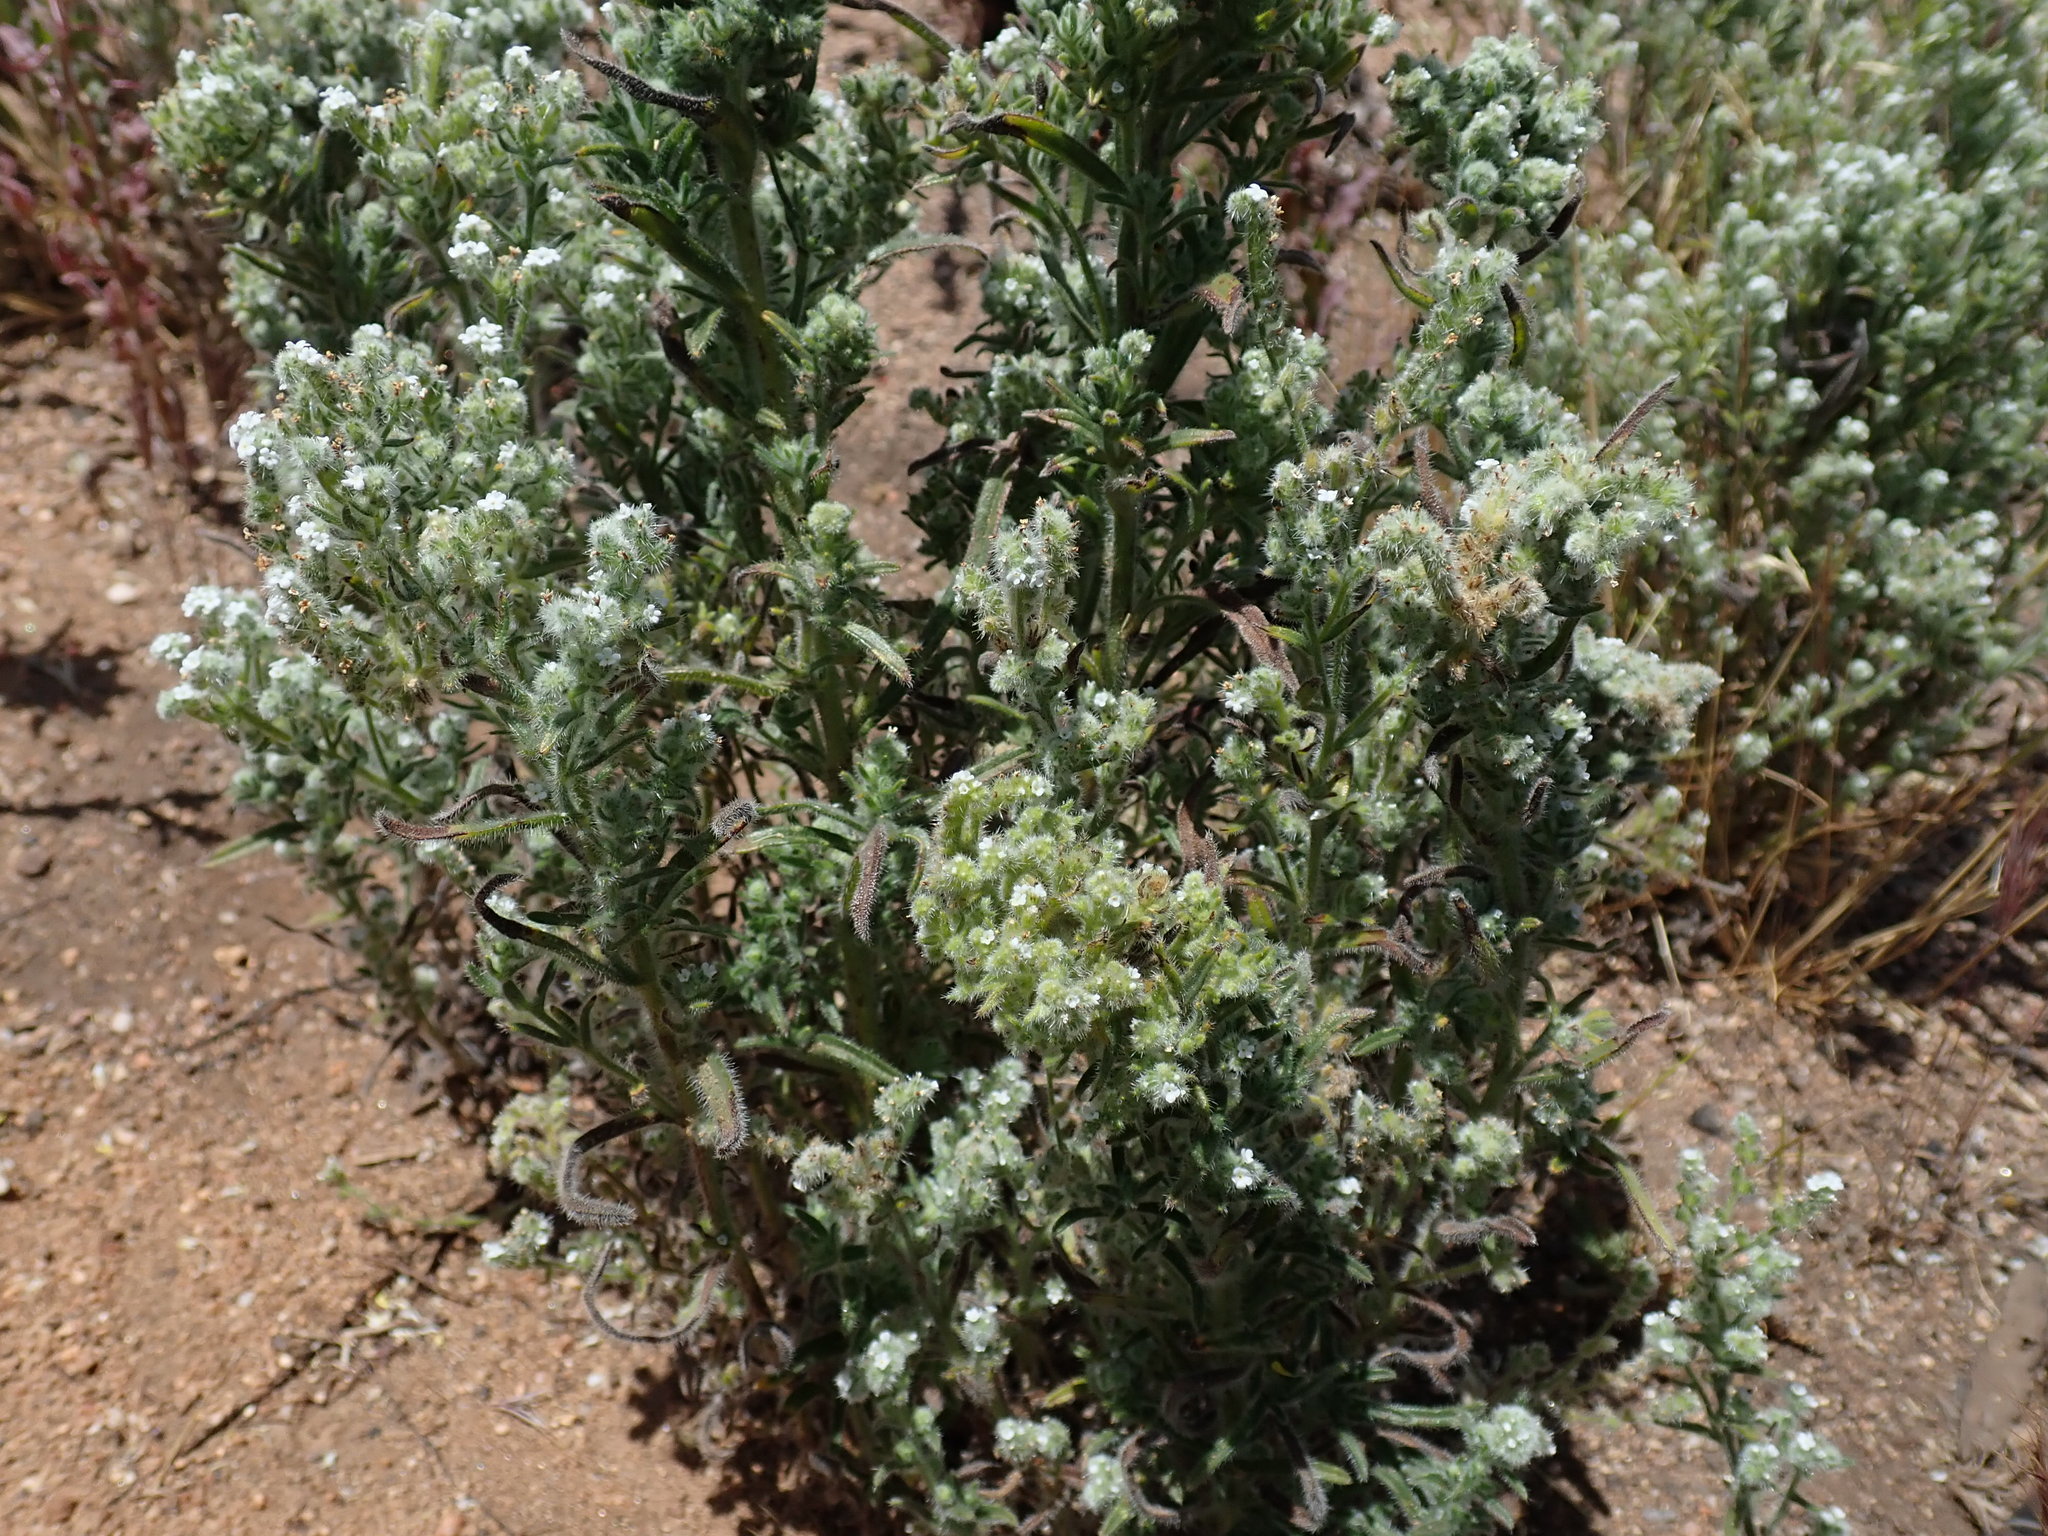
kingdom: Plantae
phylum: Tracheophyta
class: Magnoliopsida
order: Boraginales
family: Boraginaceae
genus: Cryptantha
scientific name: Cryptantha muricata
